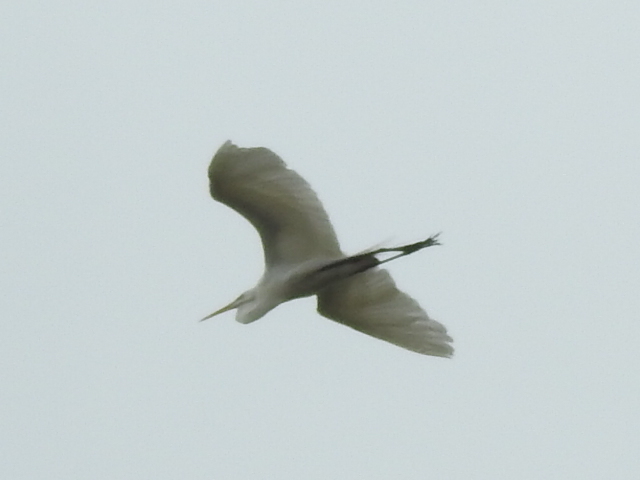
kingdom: Animalia
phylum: Chordata
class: Aves
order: Pelecaniformes
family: Ardeidae
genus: Ardea
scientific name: Ardea alba
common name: Great egret
